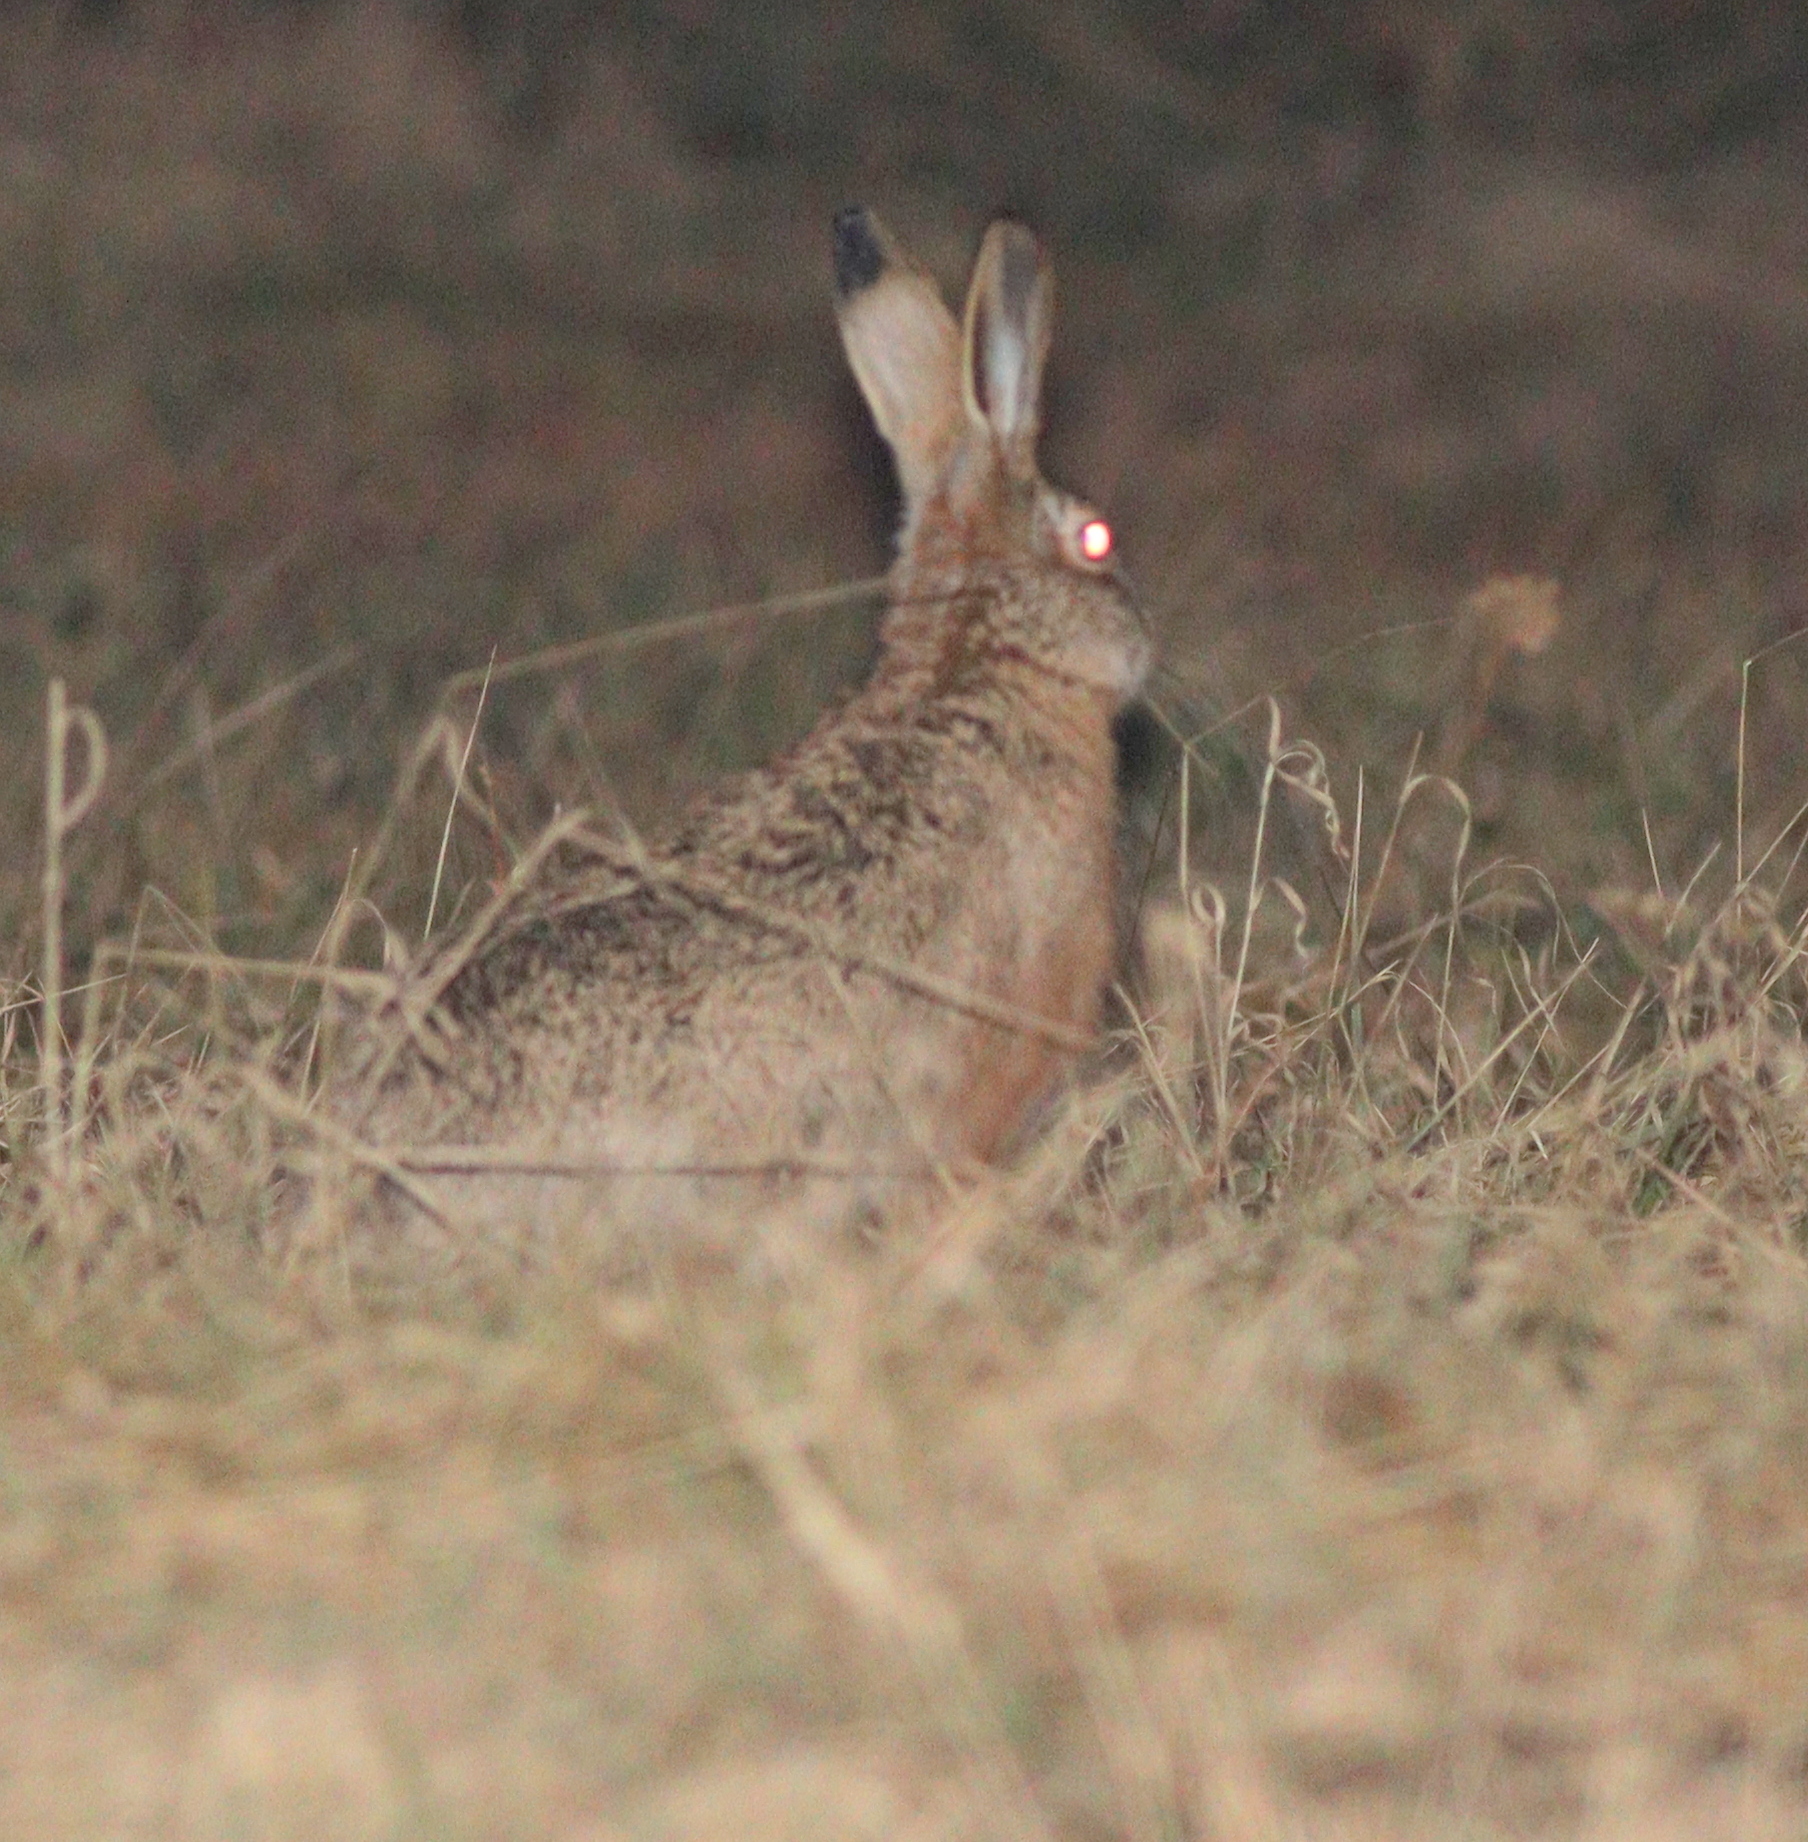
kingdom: Animalia
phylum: Chordata
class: Mammalia
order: Lagomorpha
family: Leporidae
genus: Lepus
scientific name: Lepus europaeus
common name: European hare
